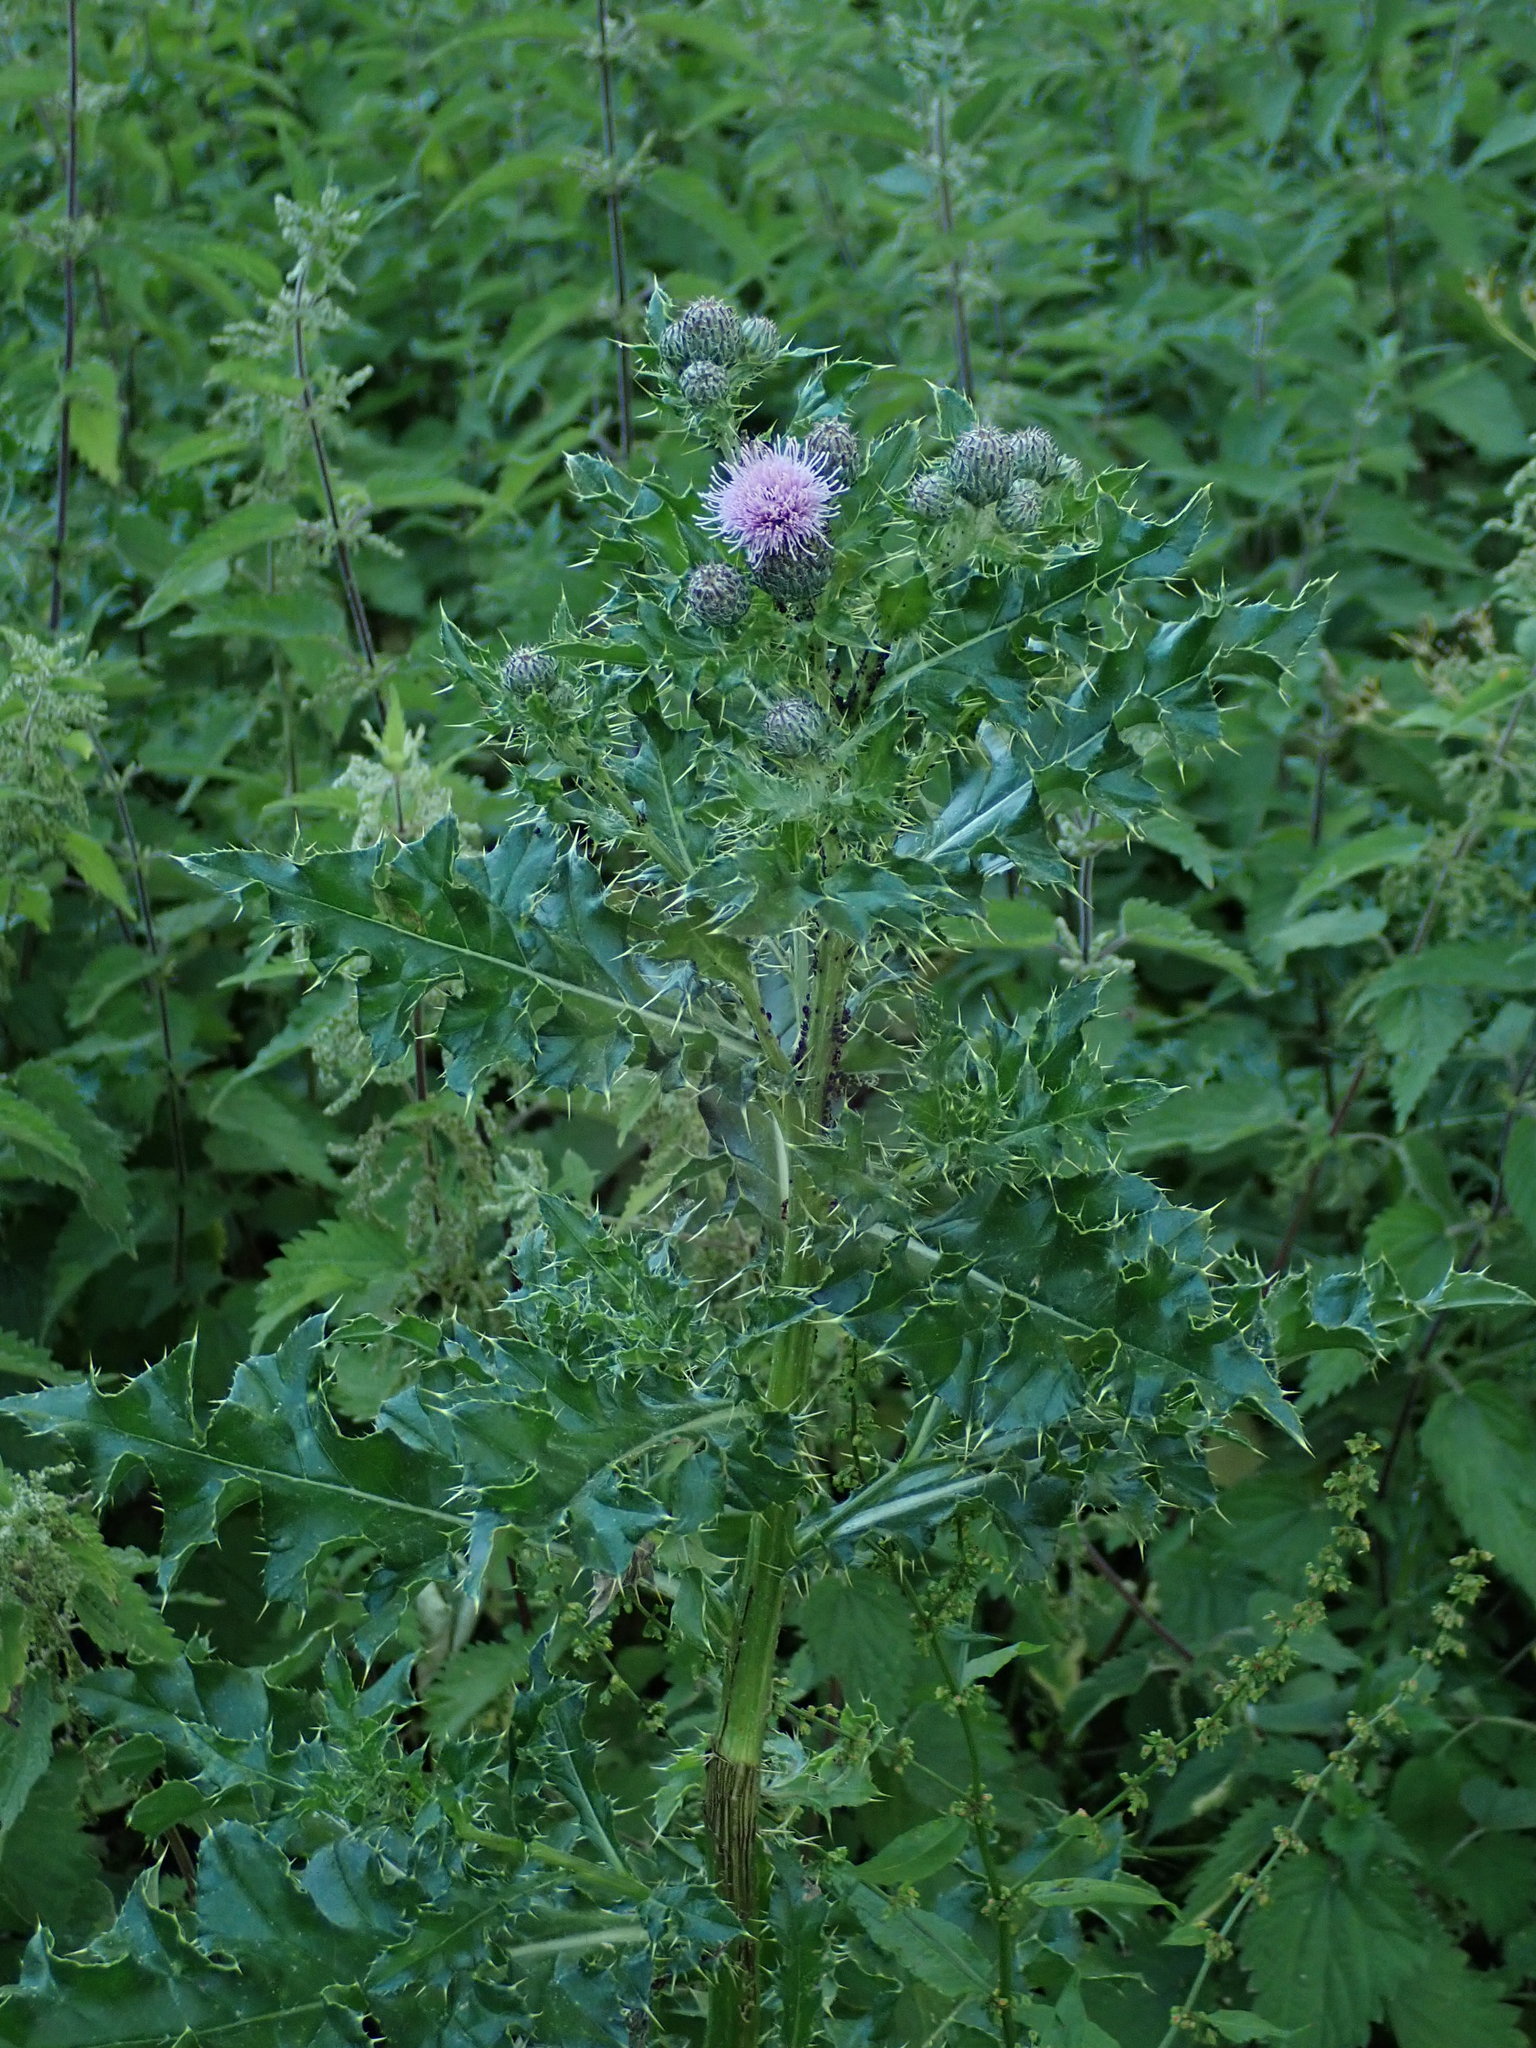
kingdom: Plantae
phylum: Tracheophyta
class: Magnoliopsida
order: Asterales
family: Asteraceae
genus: Cirsium
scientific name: Cirsium arvense
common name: Creeping thistle
